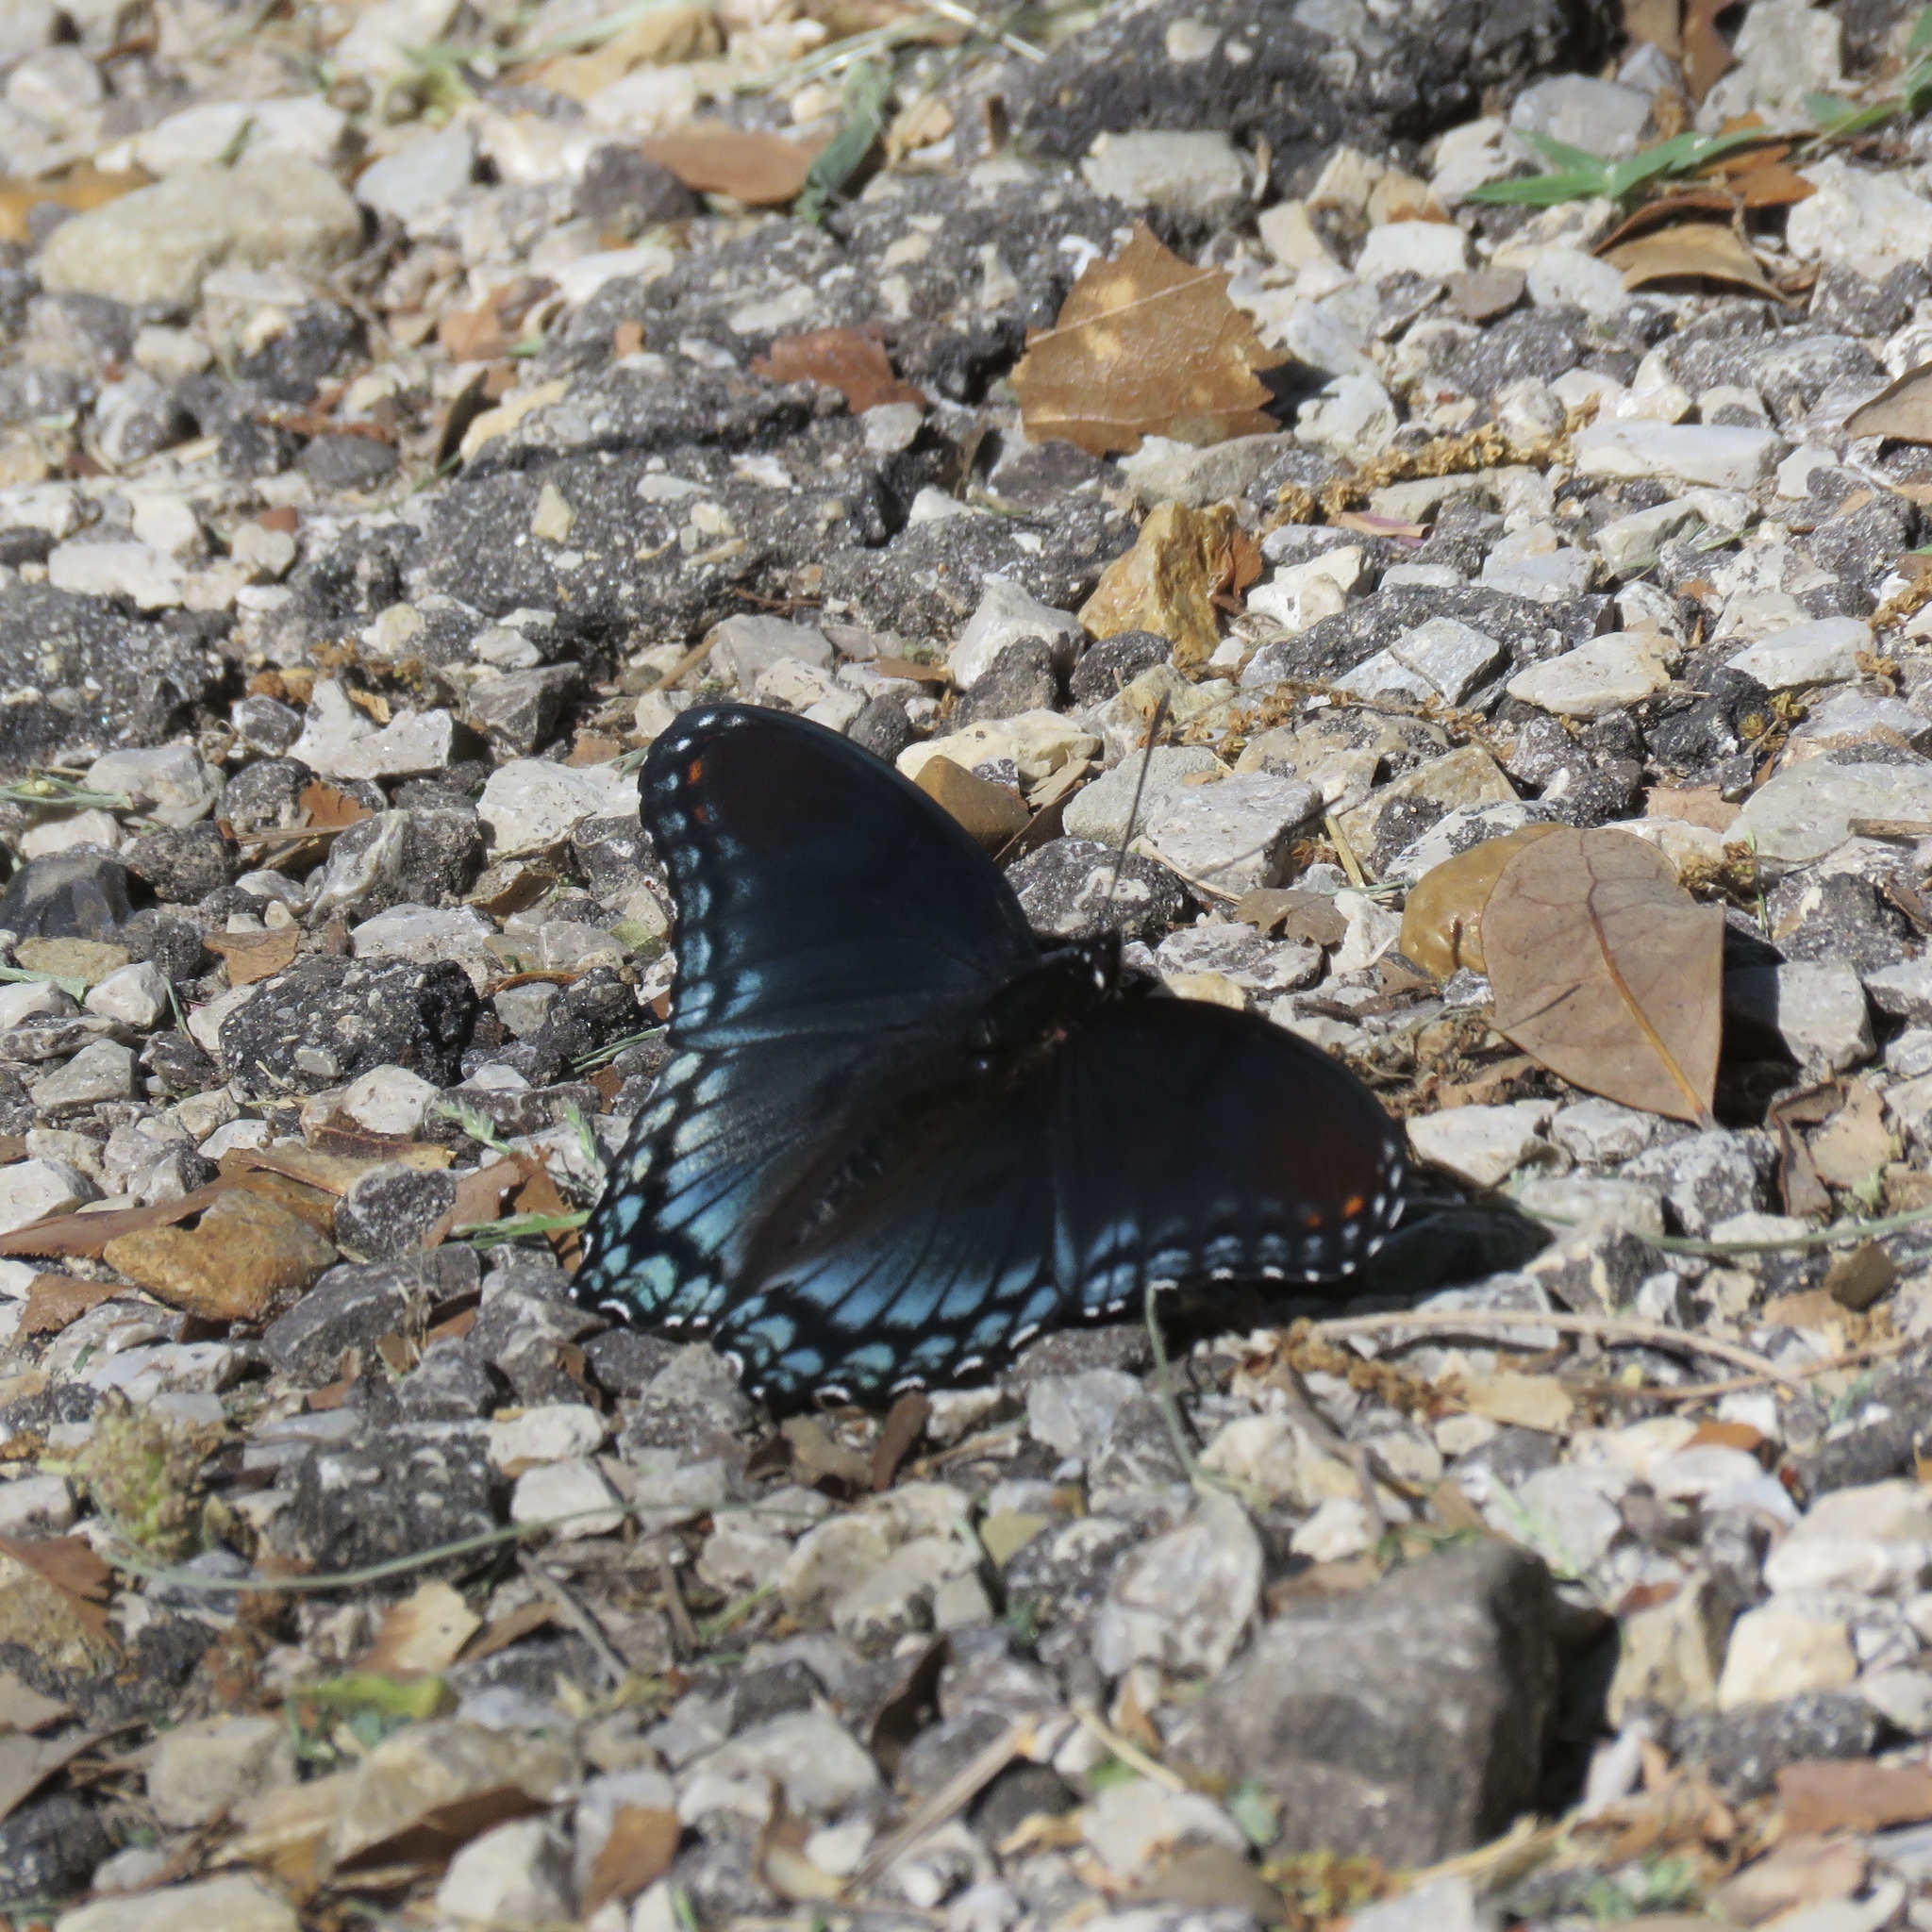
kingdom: Animalia
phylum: Arthropoda
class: Insecta
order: Lepidoptera
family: Nymphalidae
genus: Limenitis
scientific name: Limenitis astyanax
